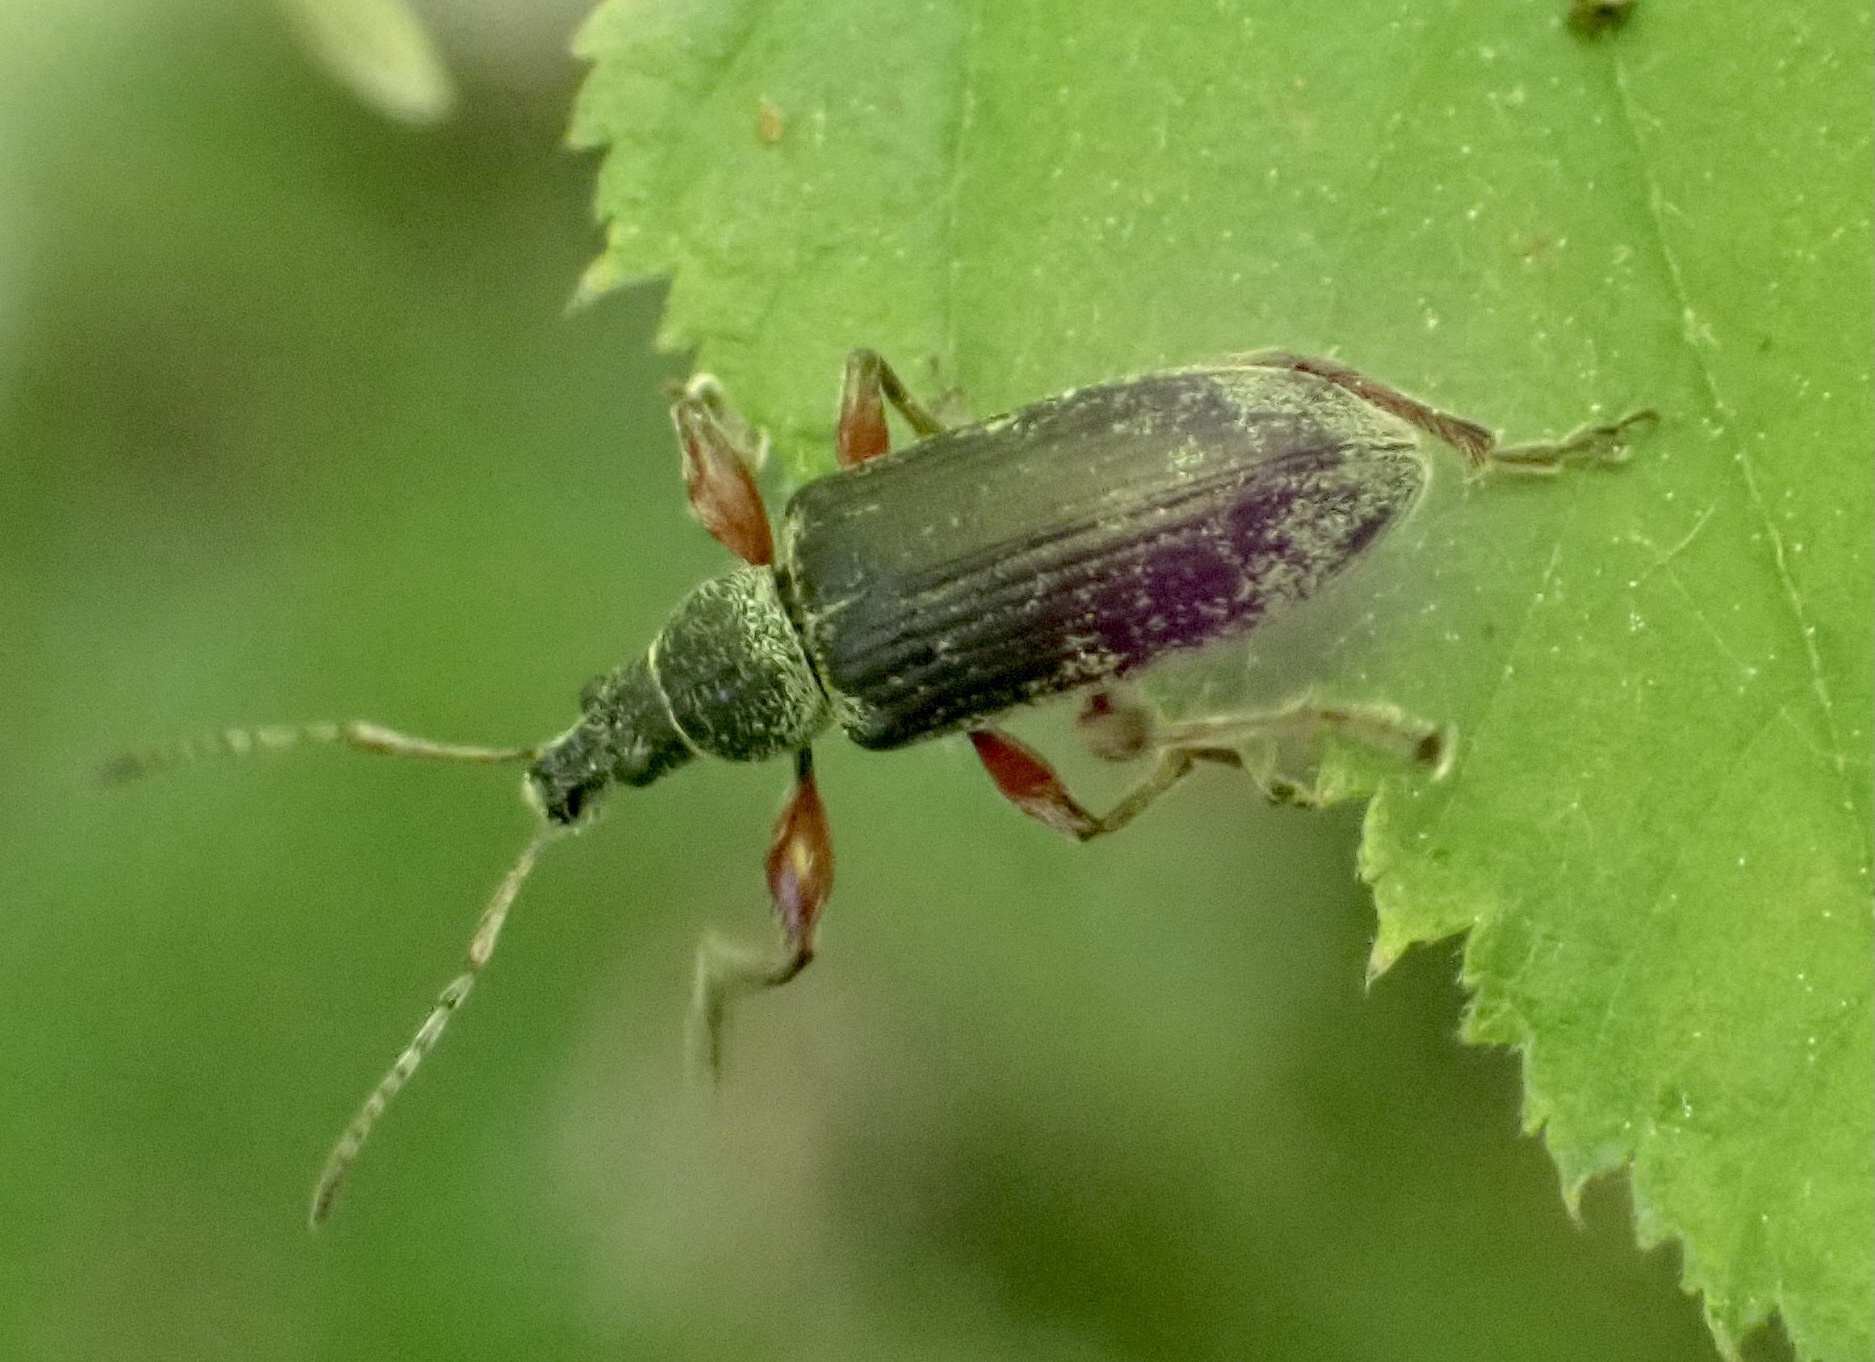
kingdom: Animalia
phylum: Arthropoda
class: Insecta
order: Coleoptera
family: Curculionidae
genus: Phyllobius
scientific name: Phyllobius pomaceus
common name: Green nettle weevil
